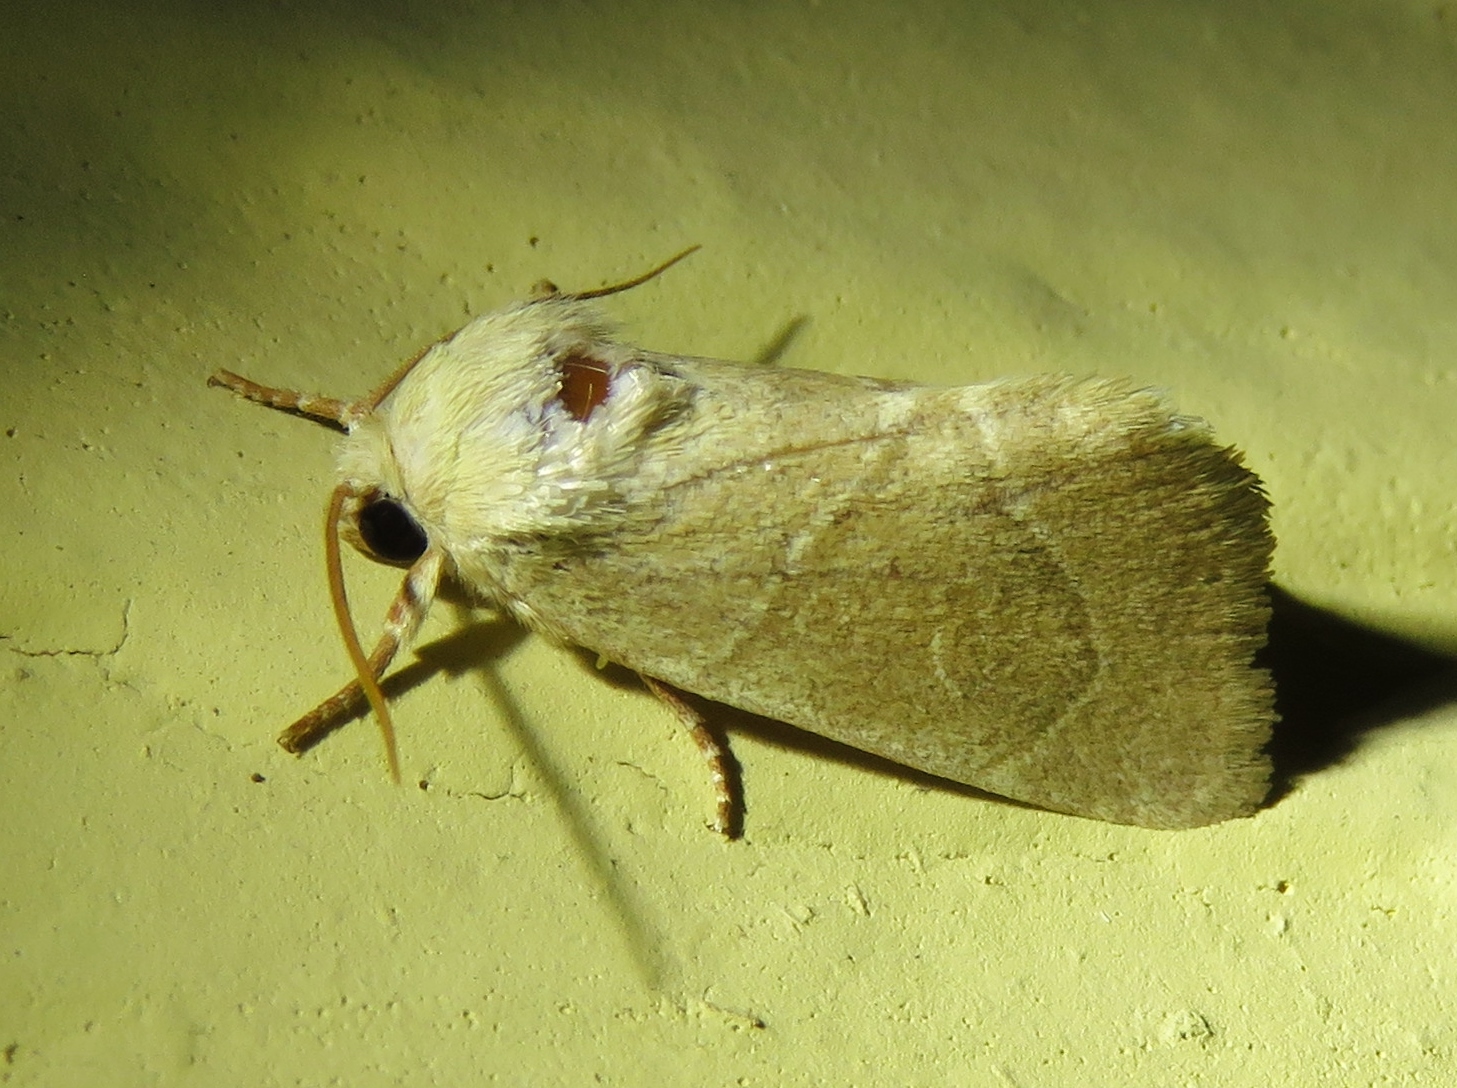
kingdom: Animalia
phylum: Arthropoda
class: Insecta
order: Lepidoptera
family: Noctuidae
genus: Cosmia
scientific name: Cosmia calami
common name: American dun-bar moth
